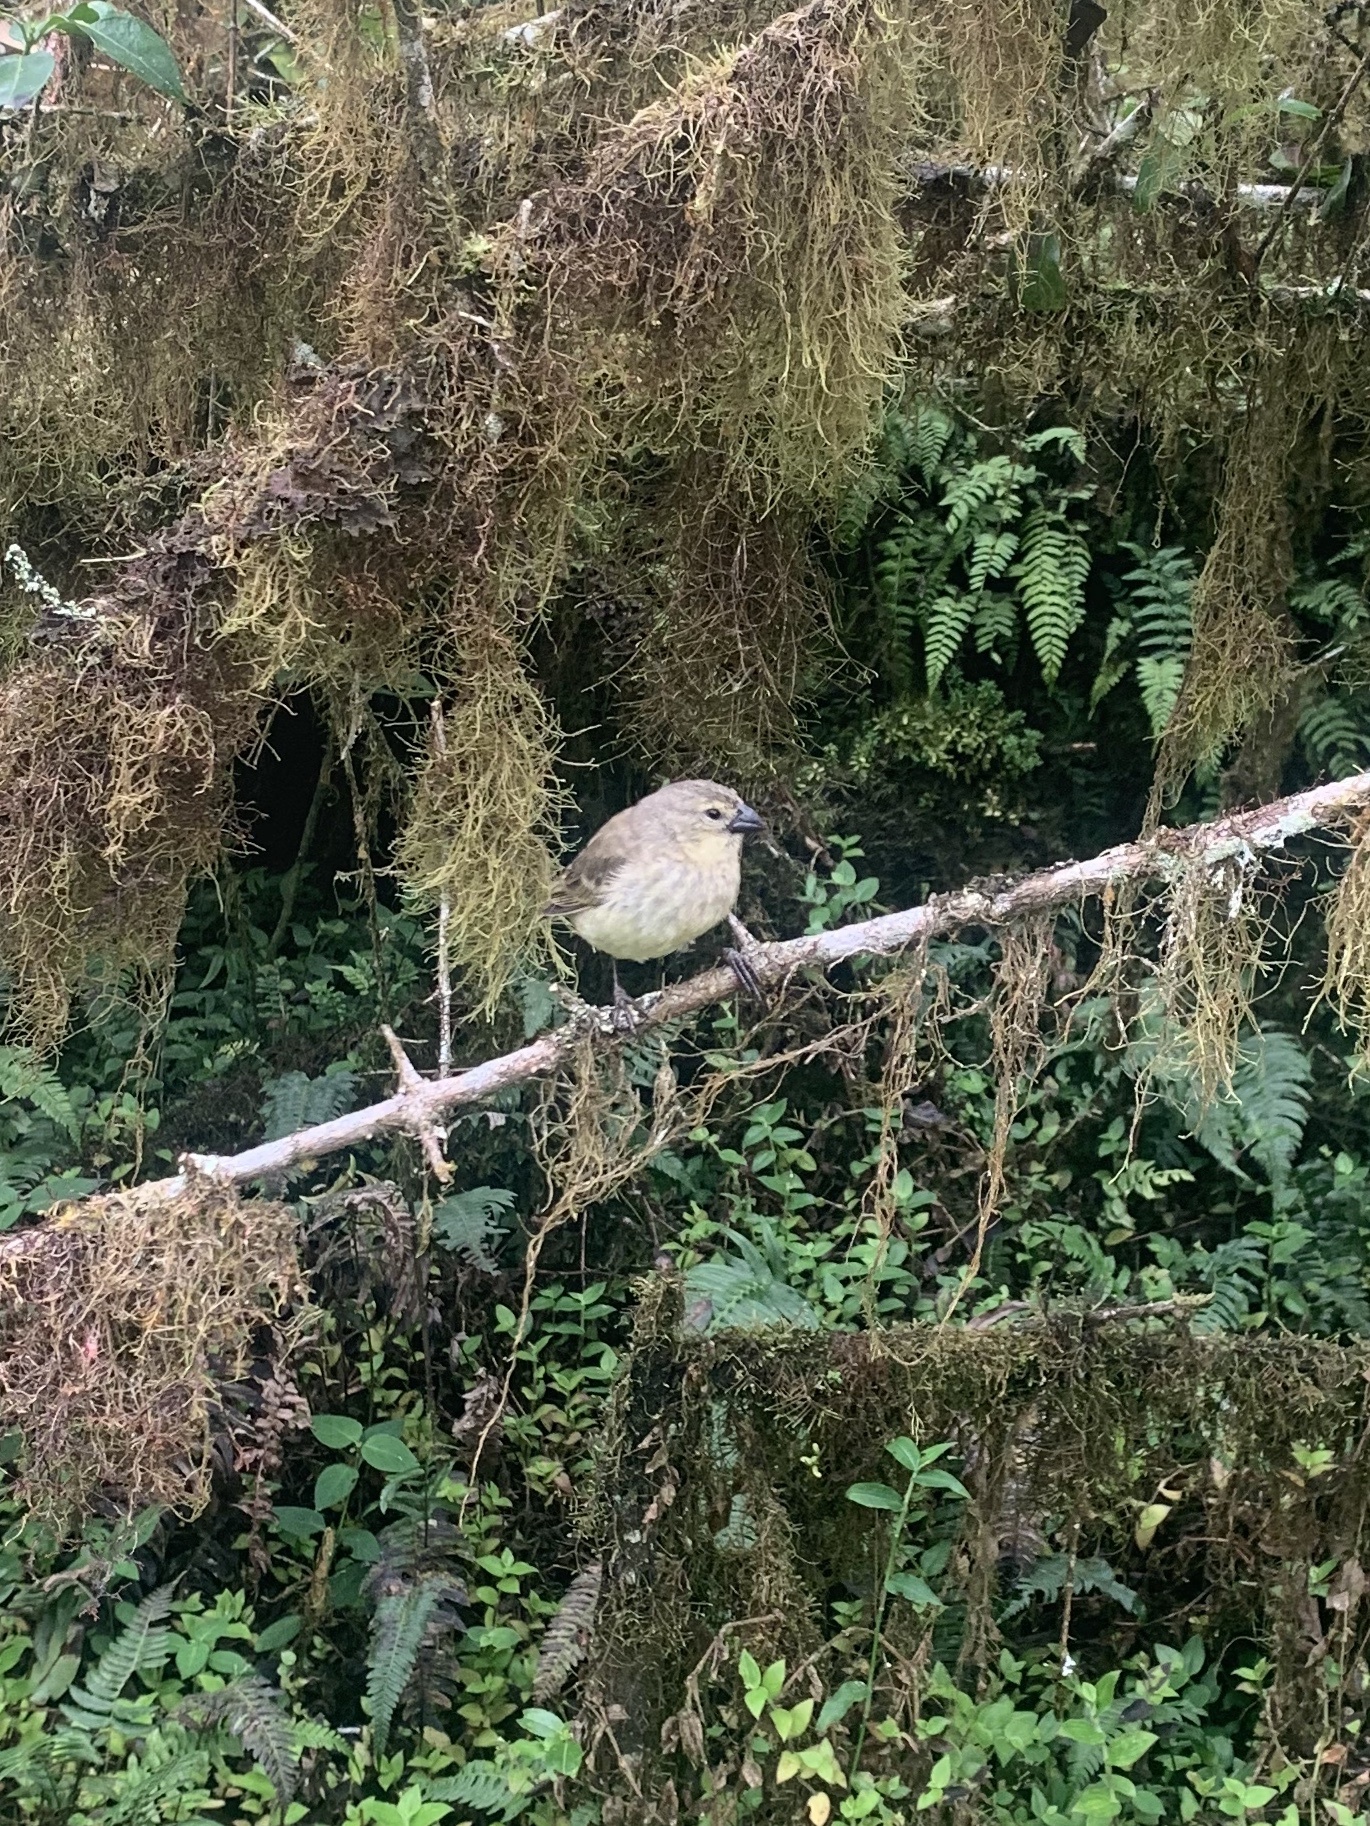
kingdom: Animalia
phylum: Chordata
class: Aves
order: Passeriformes
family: Thraupidae
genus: Camarhynchus
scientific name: Camarhynchus parvulus
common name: Small tree finch
